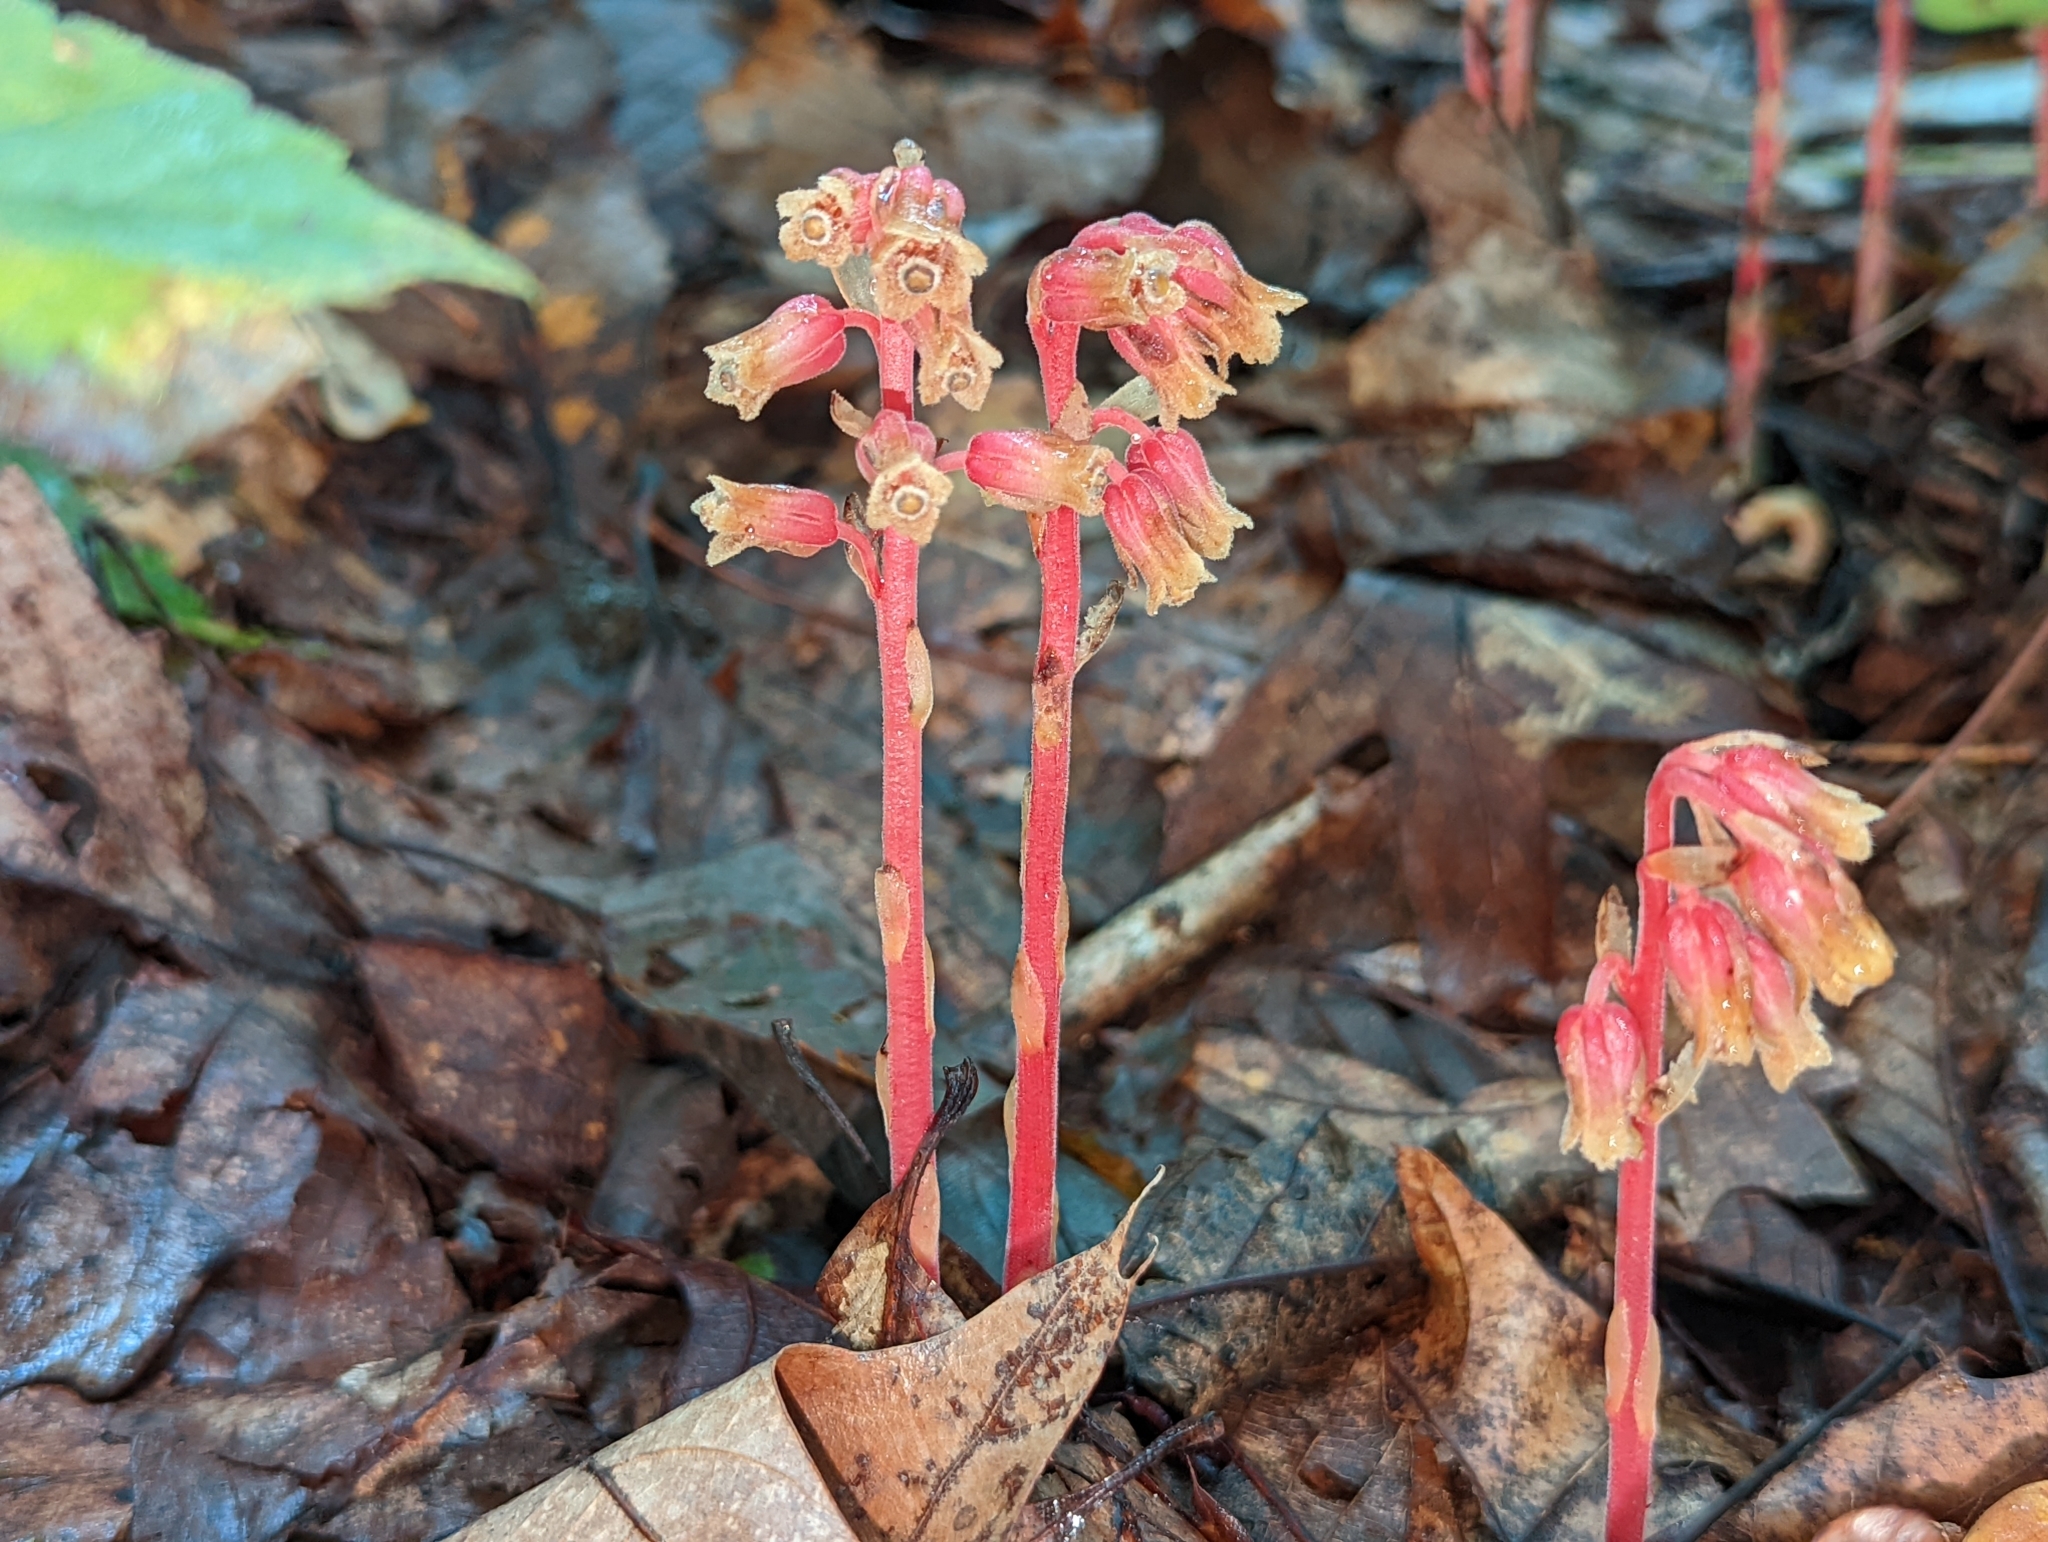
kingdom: Plantae
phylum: Tracheophyta
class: Magnoliopsida
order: Ericales
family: Ericaceae
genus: Hypopitys
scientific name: Hypopitys monotropa
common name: Yellow bird's-nest
